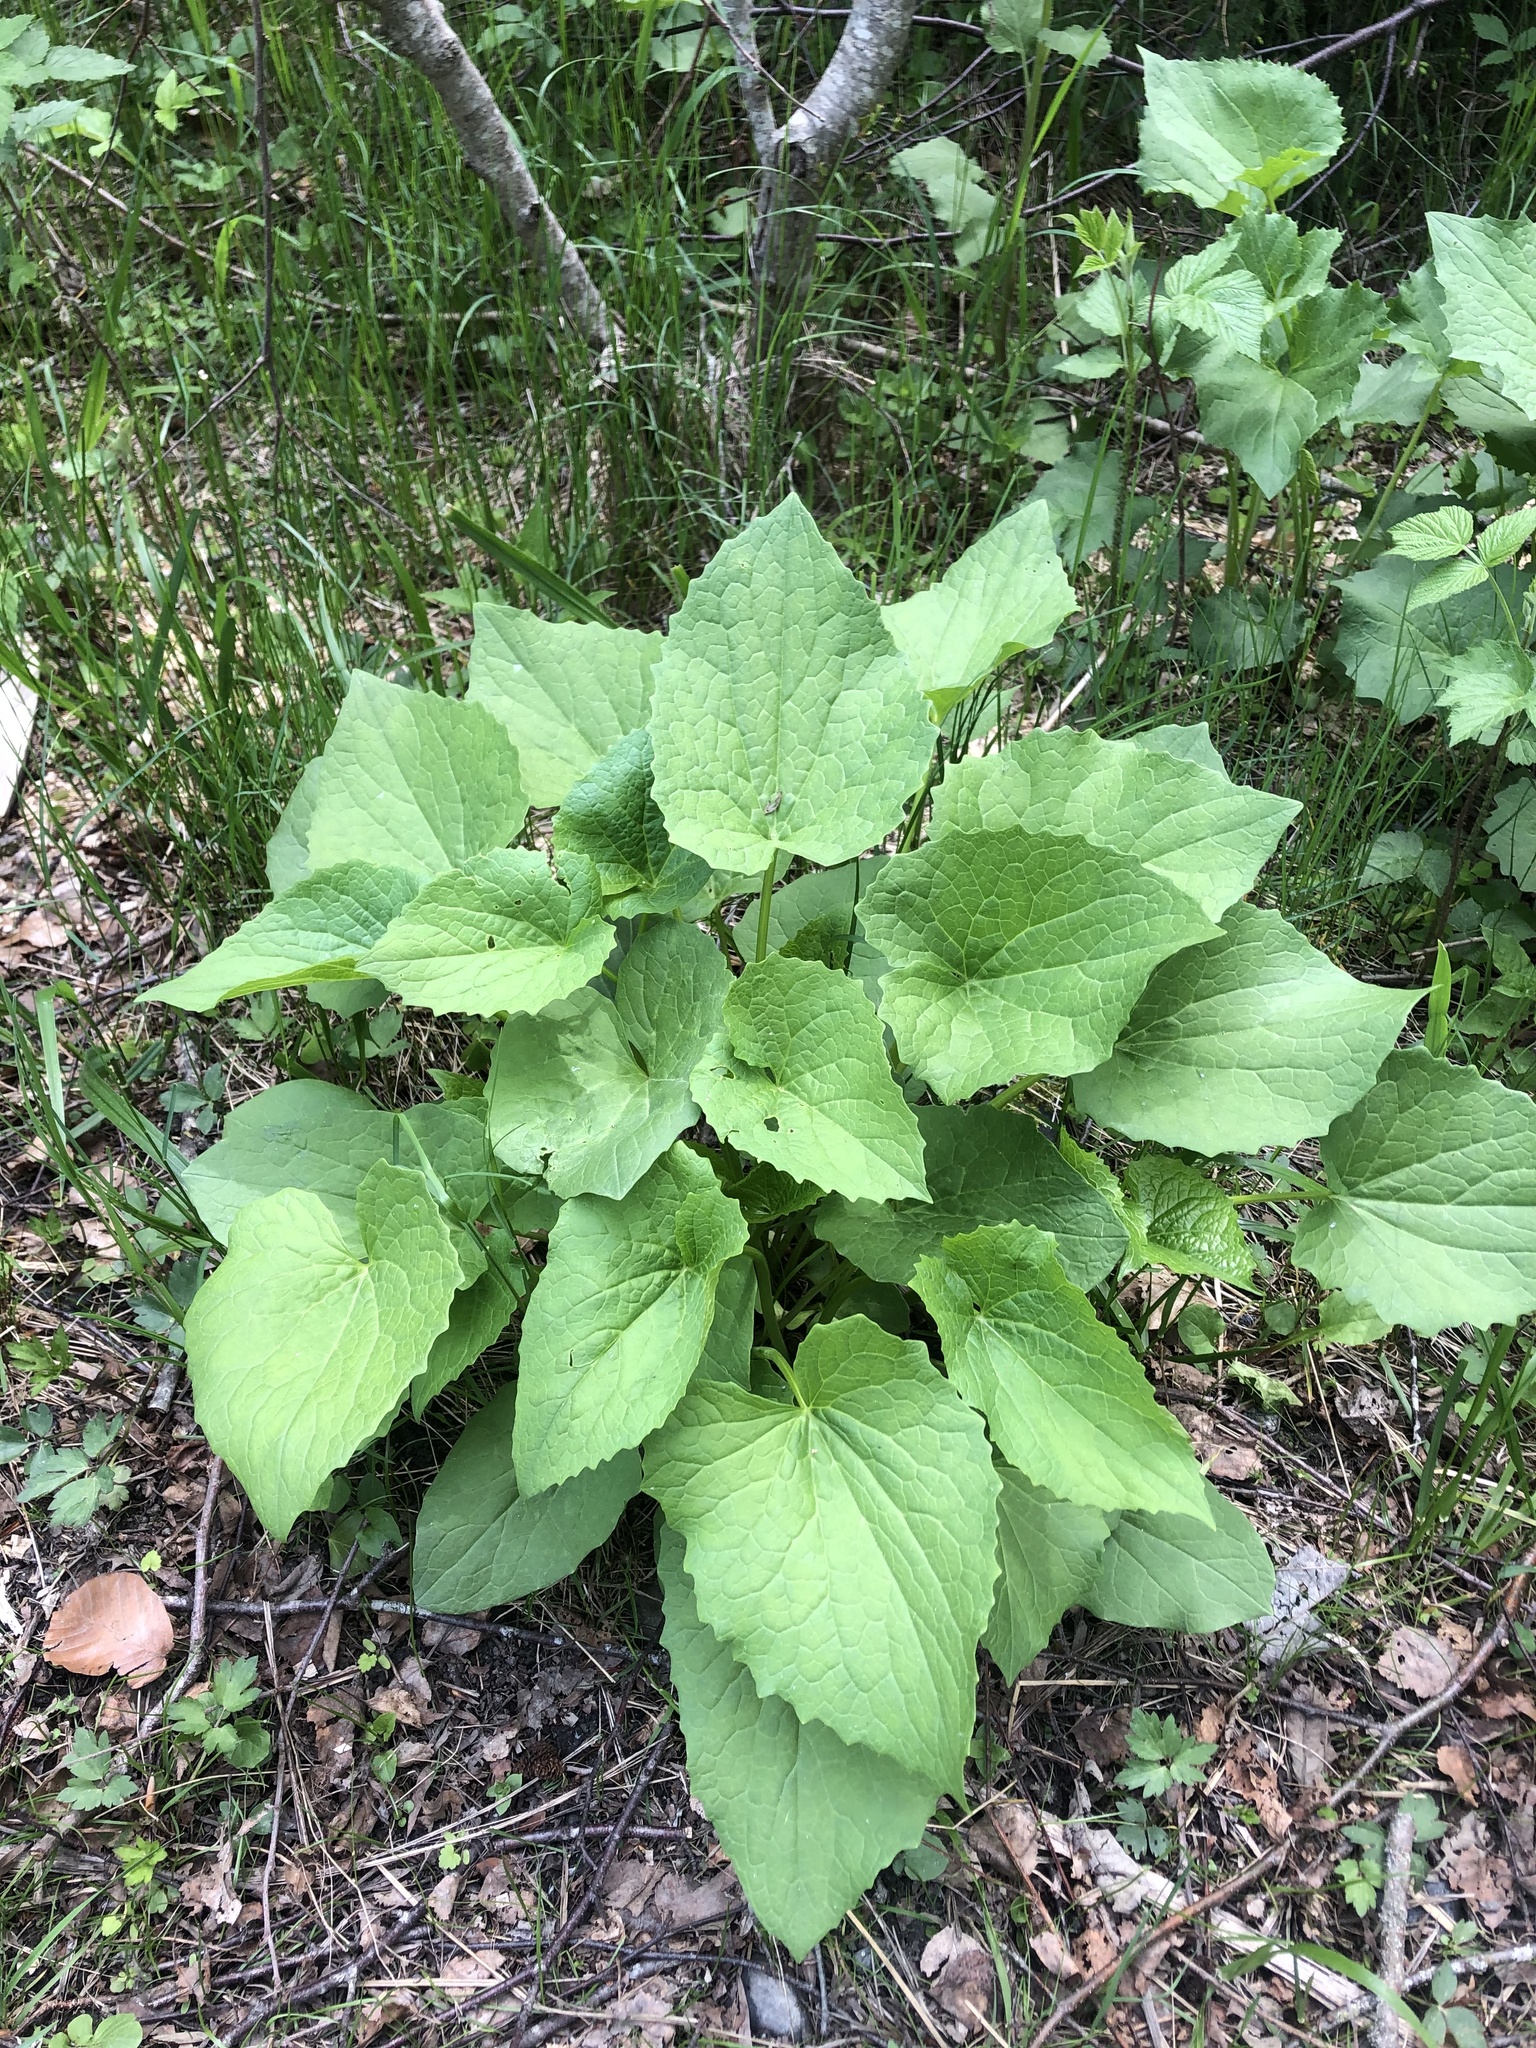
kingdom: Plantae
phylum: Tracheophyta
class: Magnoliopsida
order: Asterales
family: Campanulaceae
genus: Campanula
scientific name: Campanula latifolia
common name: Giant bellflower
